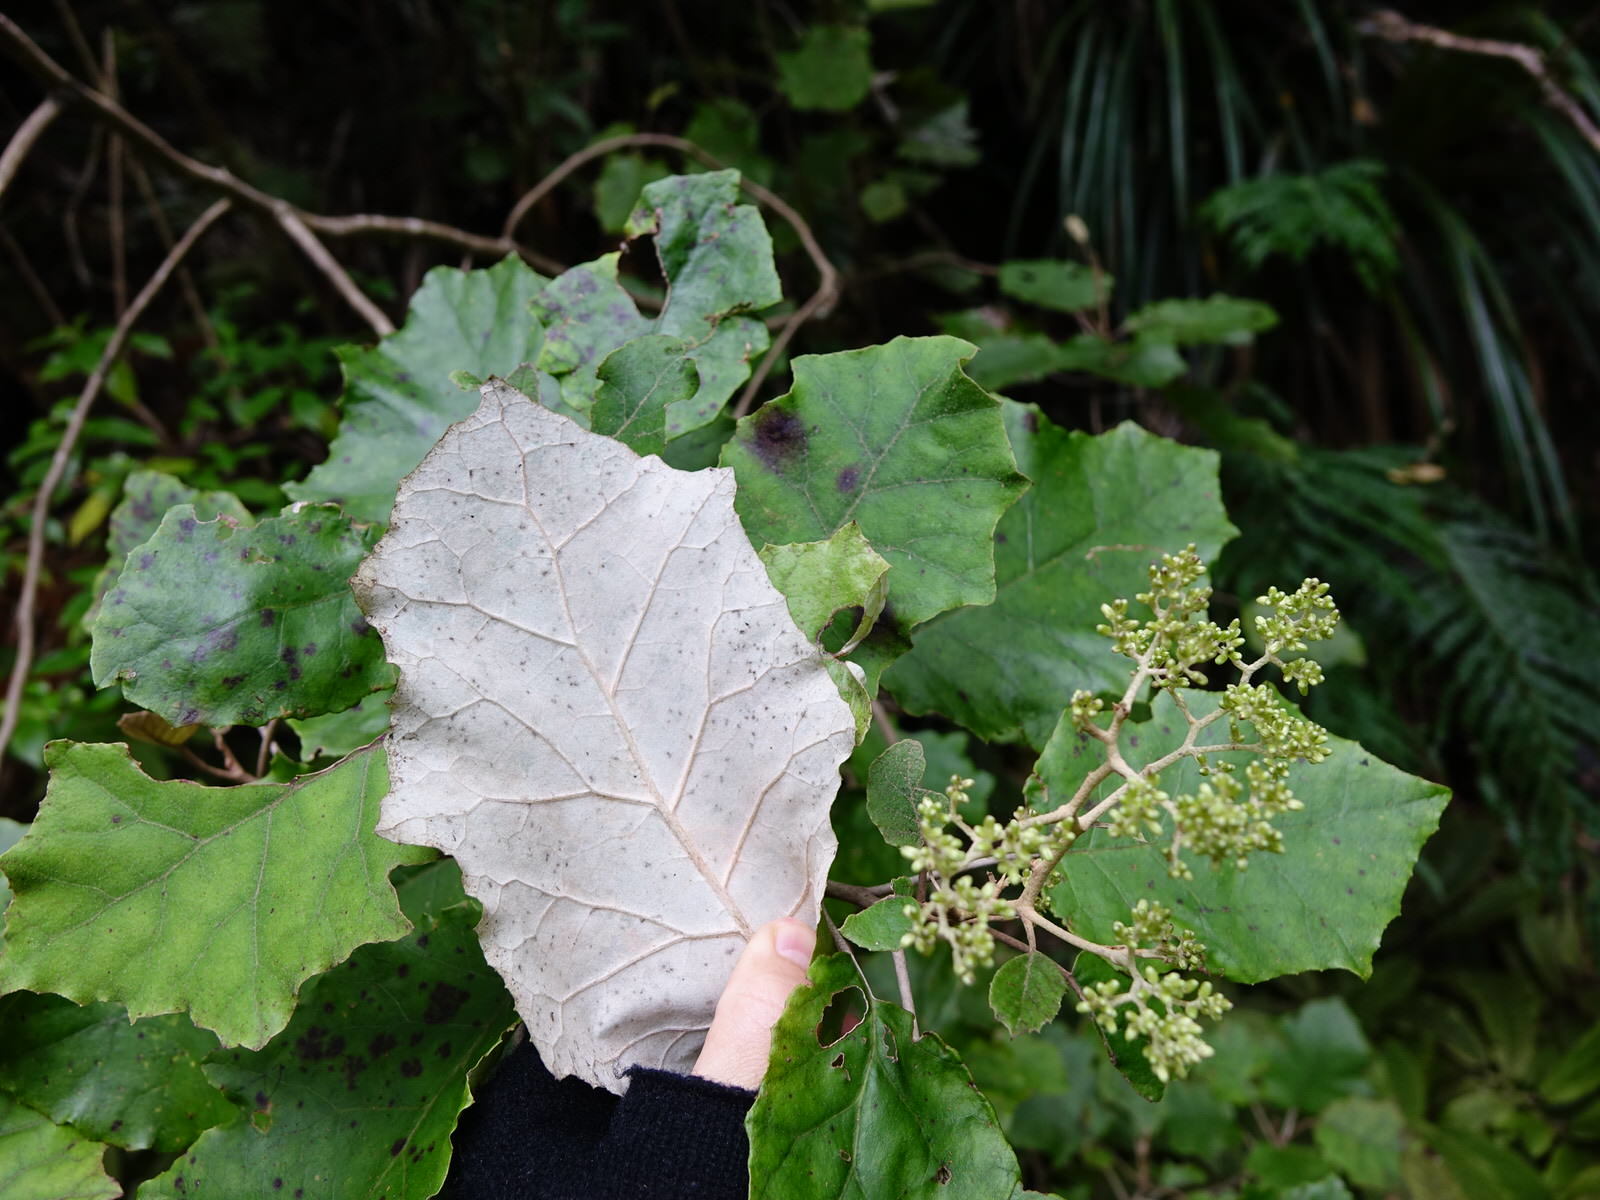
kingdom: Plantae
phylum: Tracheophyta
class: Magnoliopsida
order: Asterales
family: Asteraceae
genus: Brachyglottis
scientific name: Brachyglottis repanda
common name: Hedge ragwort
